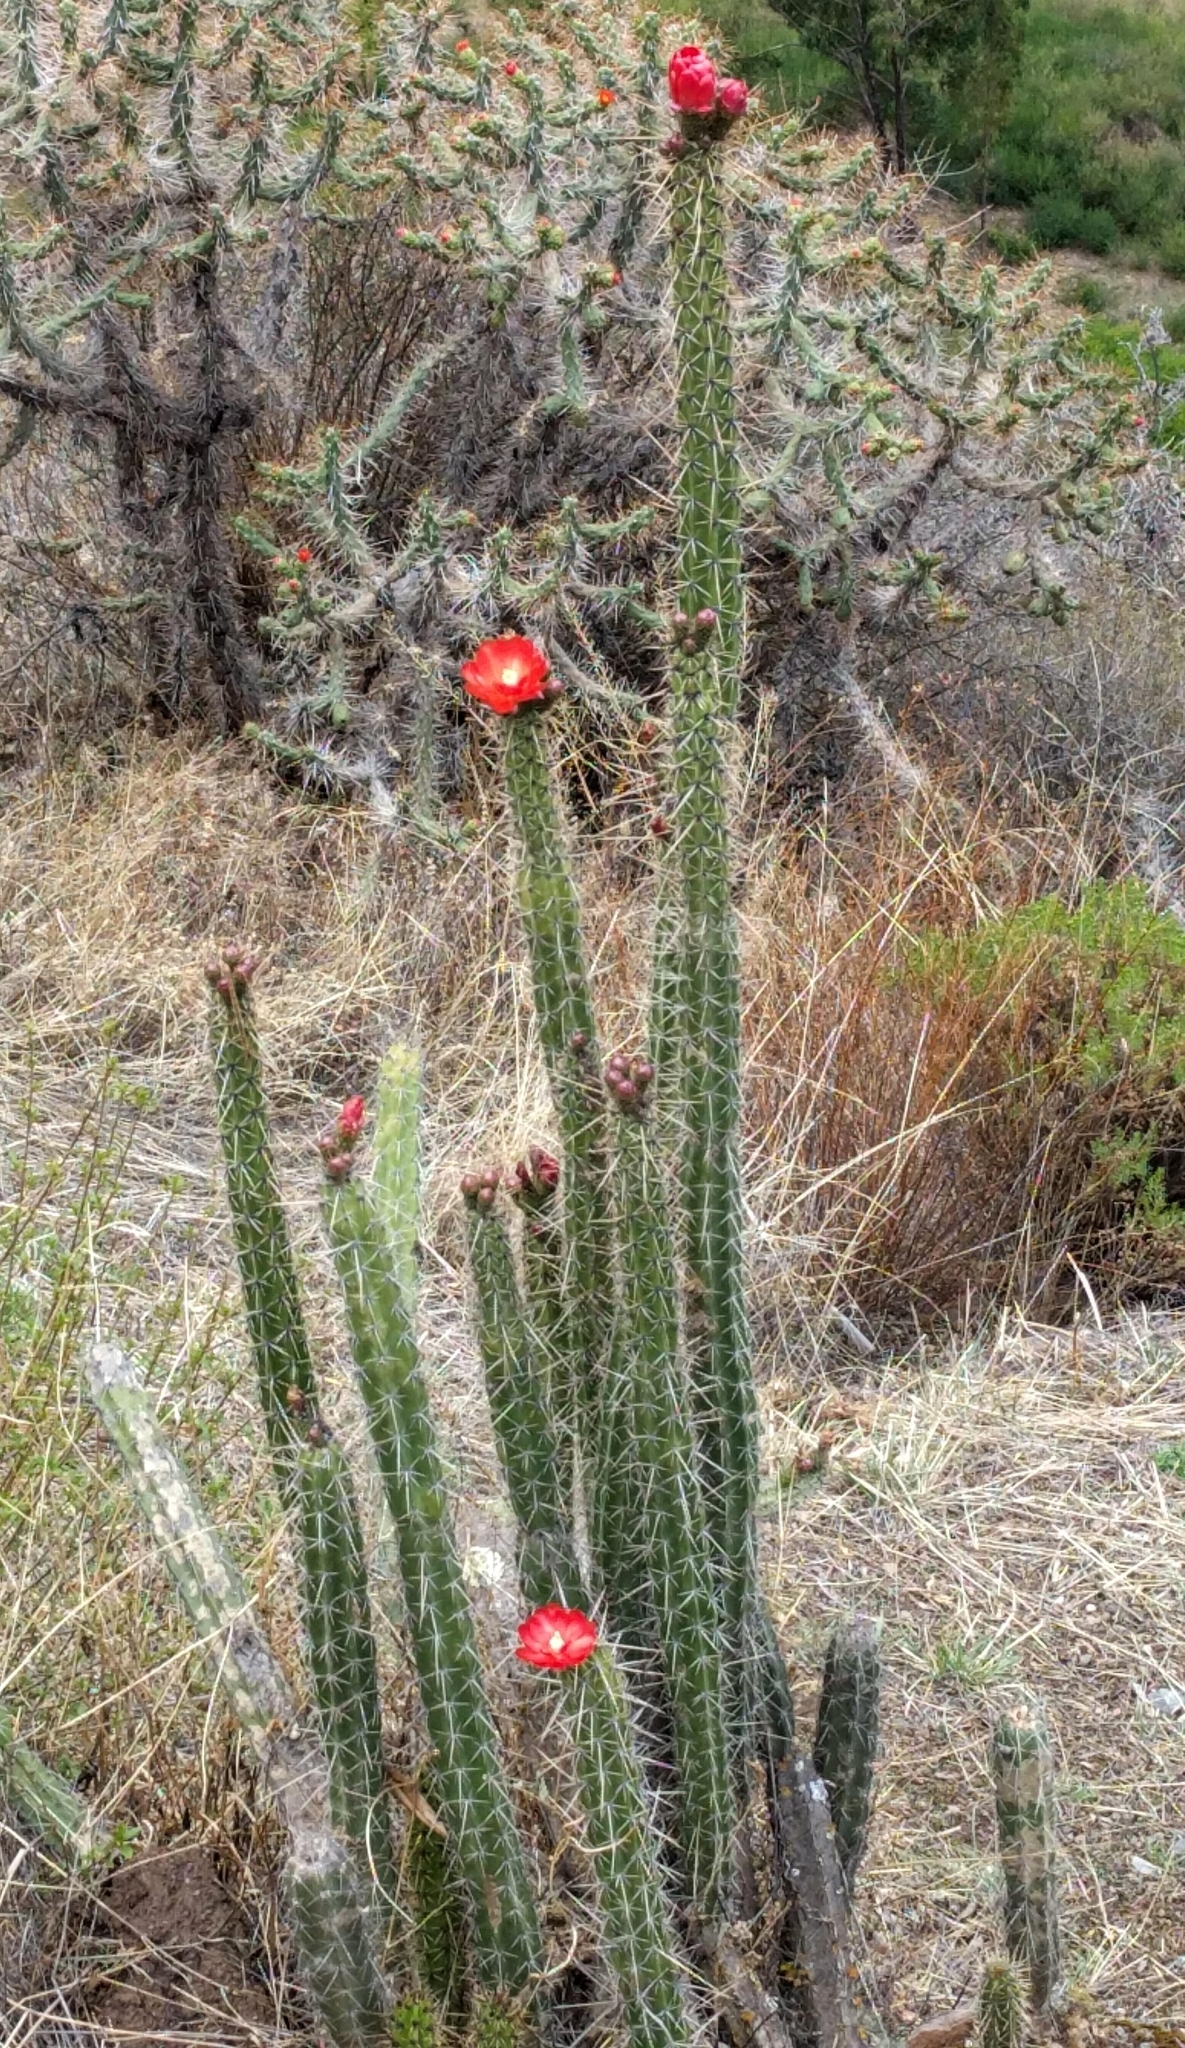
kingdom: Plantae
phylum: Tracheophyta
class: Magnoliopsida
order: Caryophyllales
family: Cactaceae
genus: Corryocactus
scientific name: Corryocactus erectus
